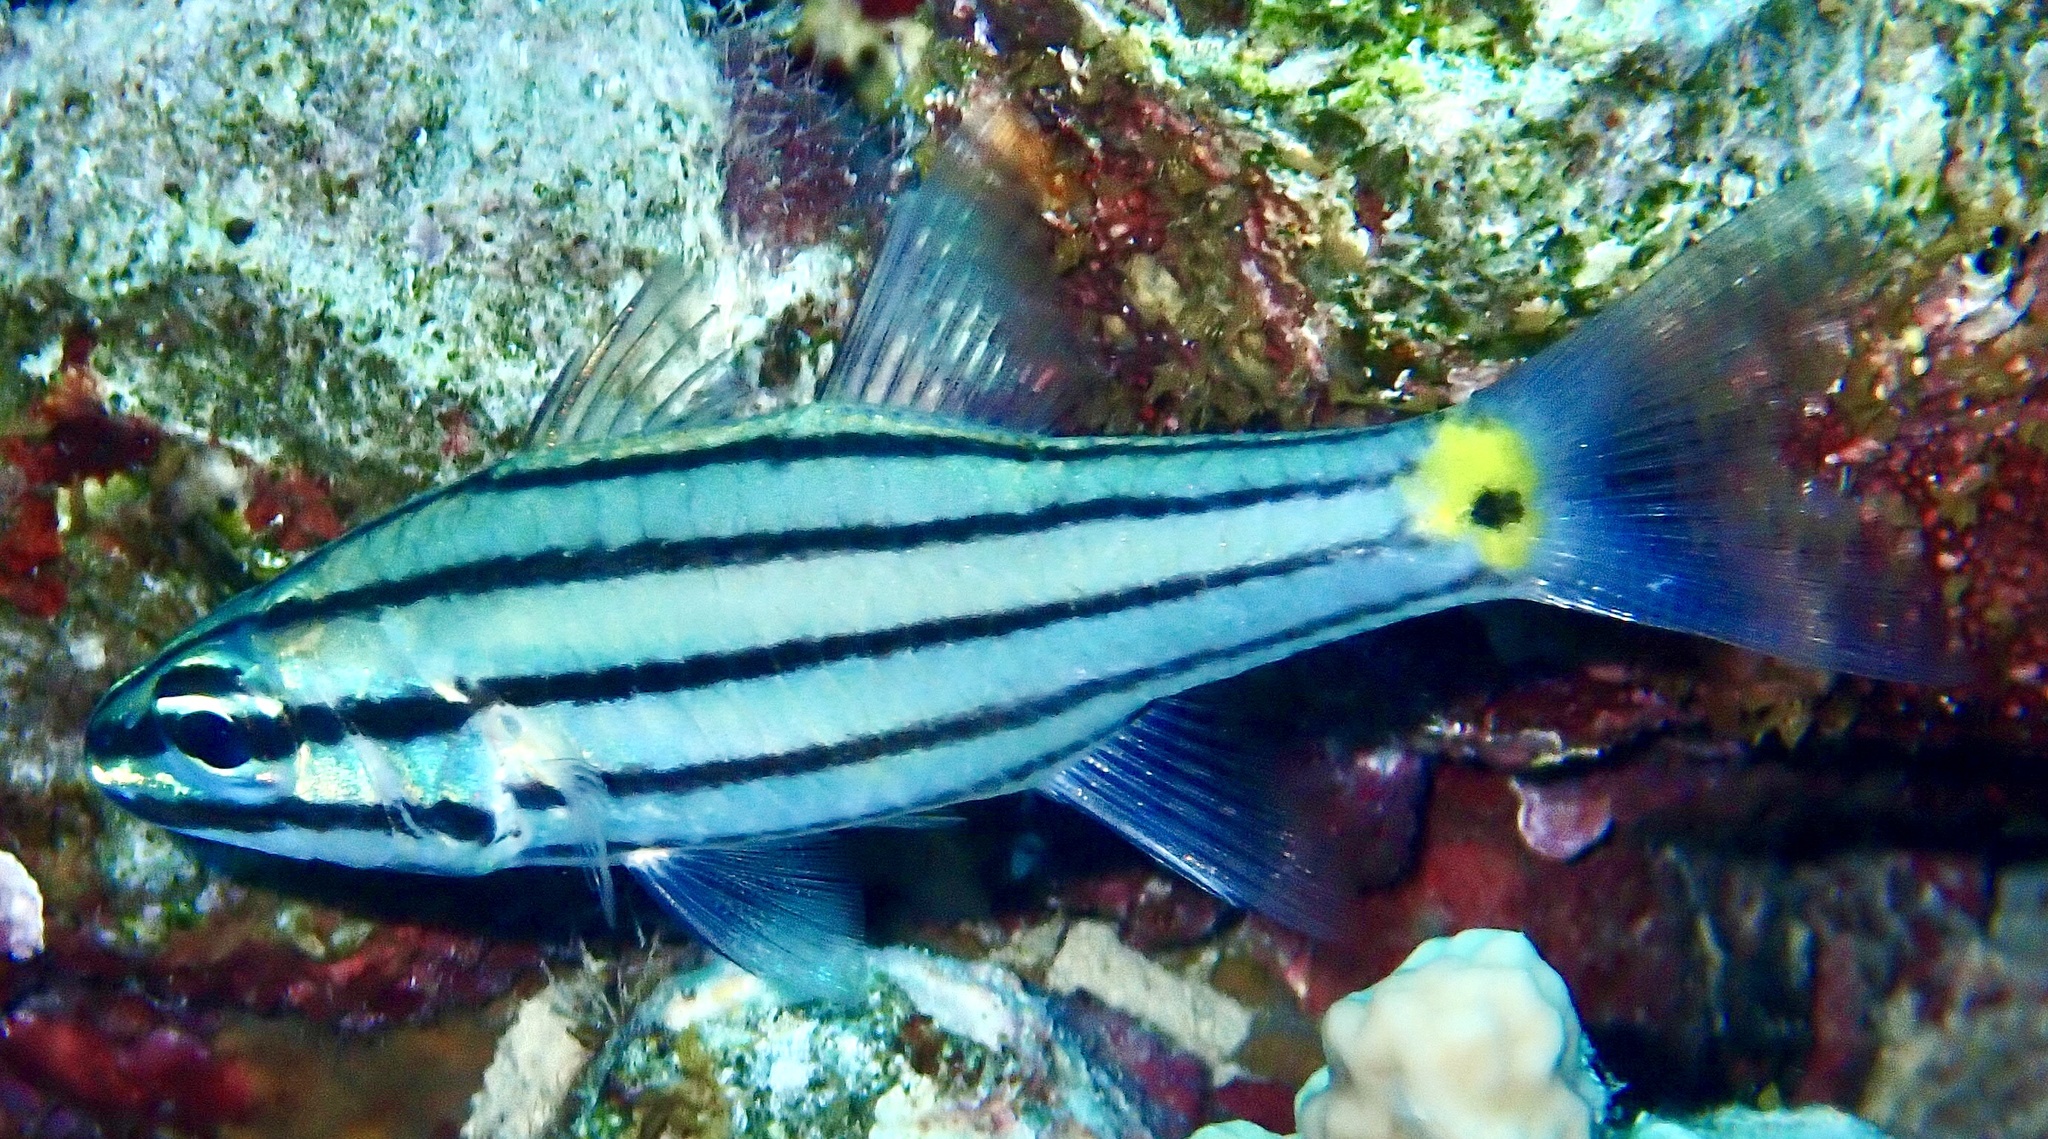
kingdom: Animalia
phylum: Chordata
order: Perciformes
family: Apogonidae
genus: Cheilodipterus
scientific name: Cheilodipterus quinquelineatus
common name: Five-lined cardinalfish
